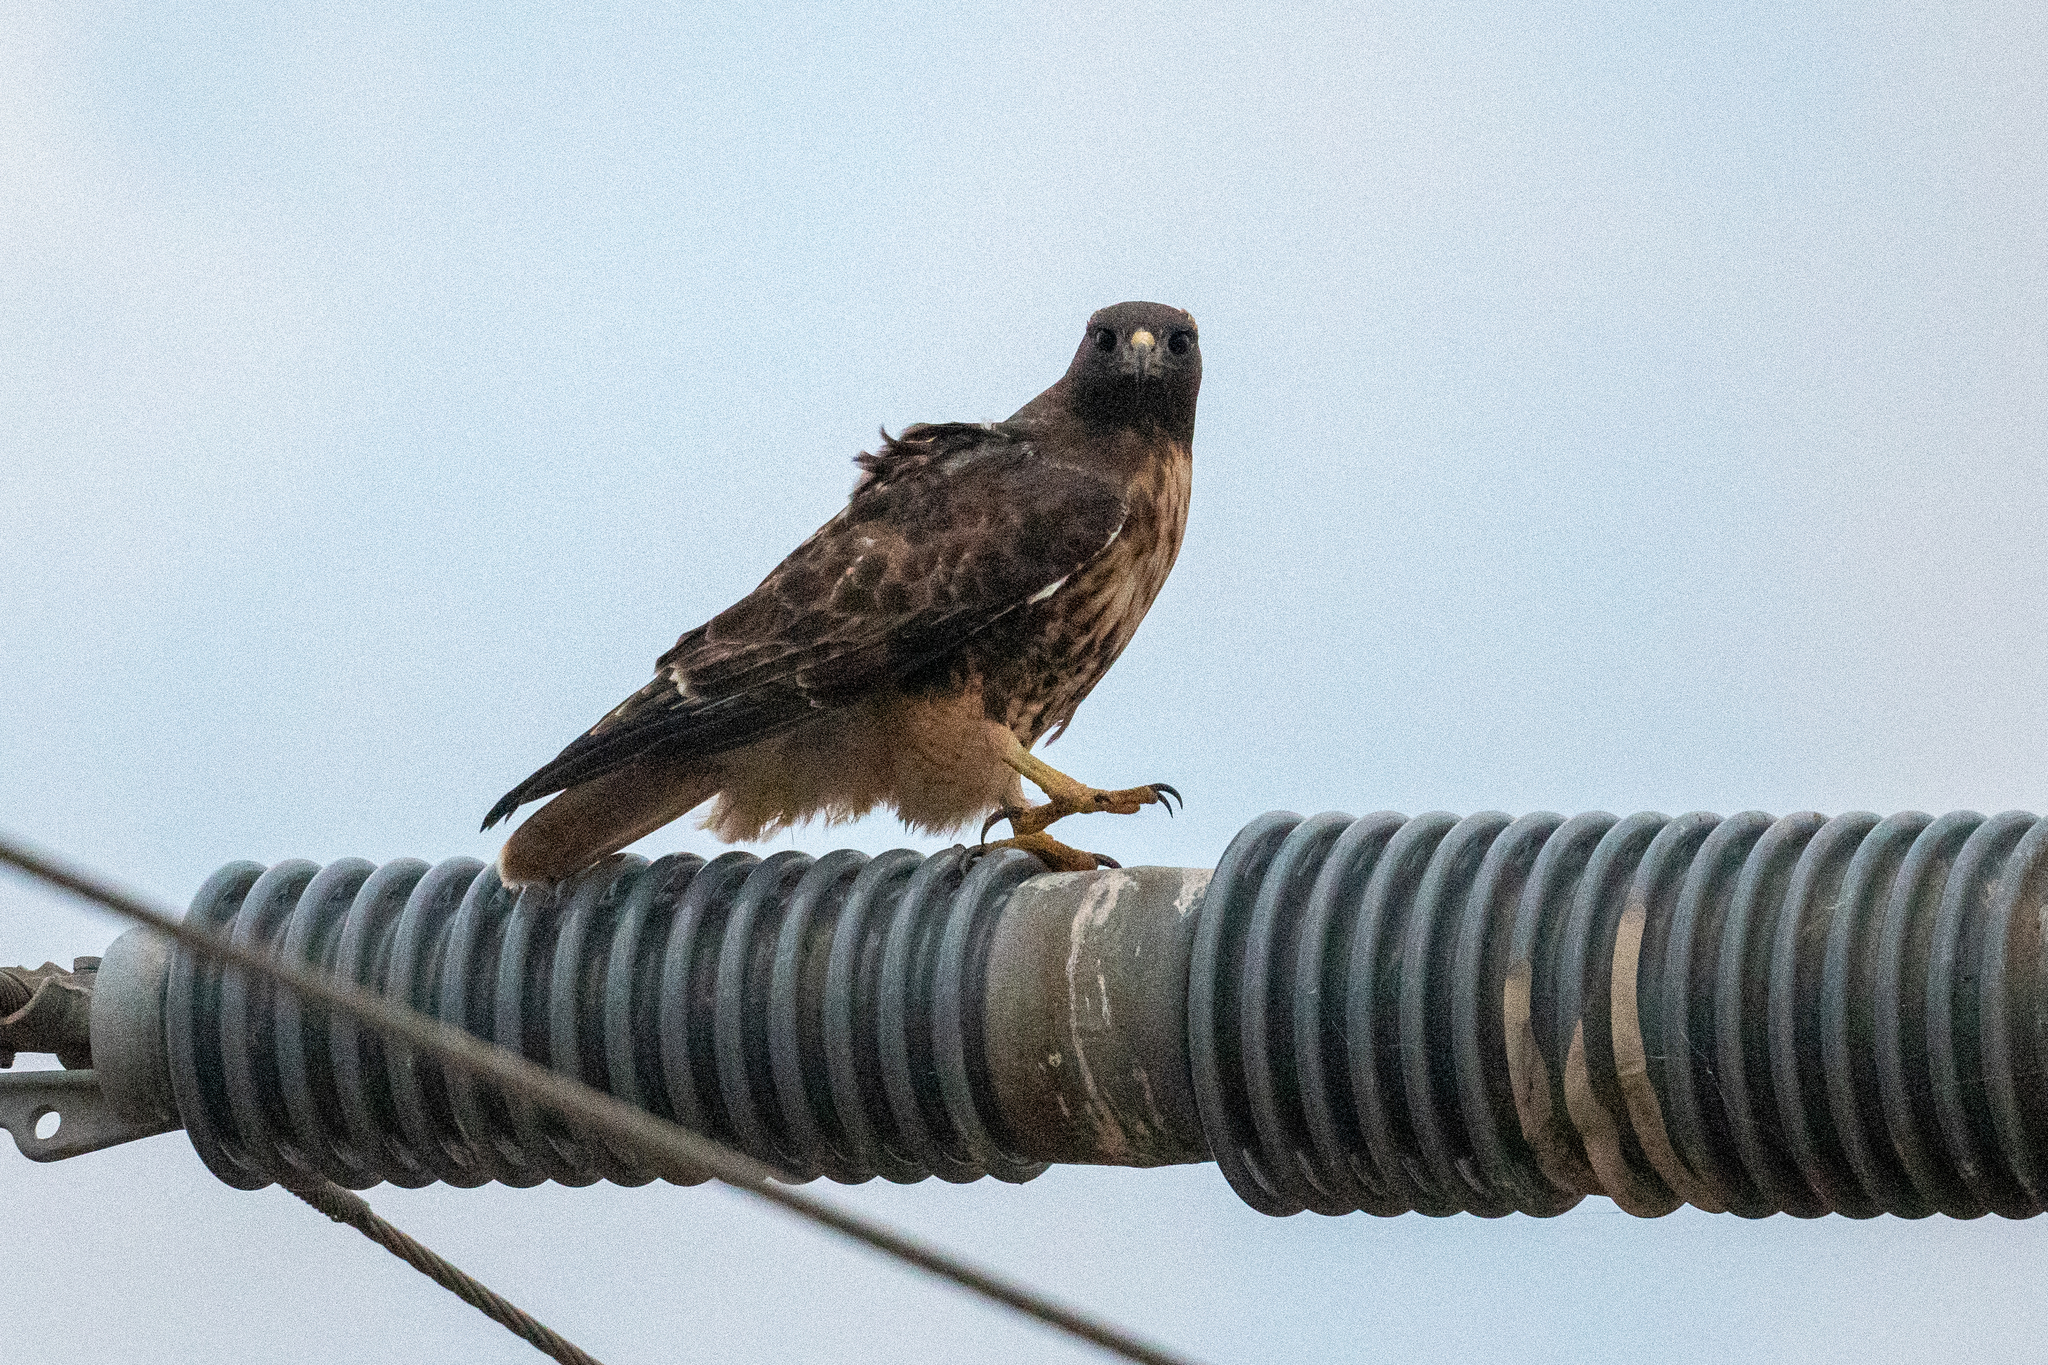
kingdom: Animalia
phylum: Chordata
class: Aves
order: Accipitriformes
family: Accipitridae
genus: Buteo
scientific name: Buteo jamaicensis
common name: Red-tailed hawk
